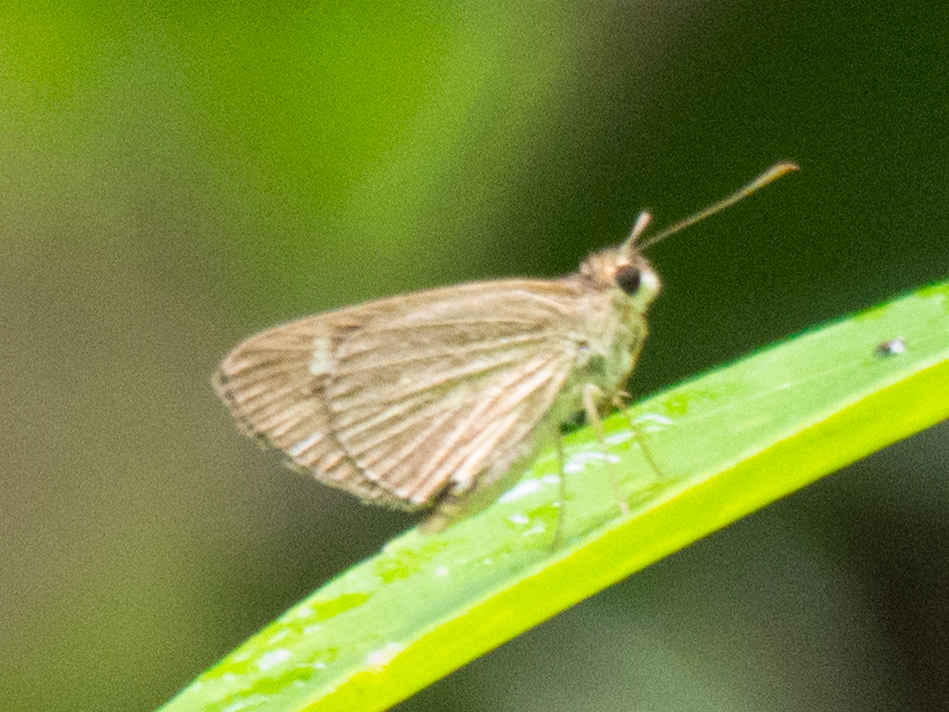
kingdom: Animalia
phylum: Arthropoda
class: Insecta
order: Lepidoptera
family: Hesperiidae
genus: Suada
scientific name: Suada swerga
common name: Grass bob
